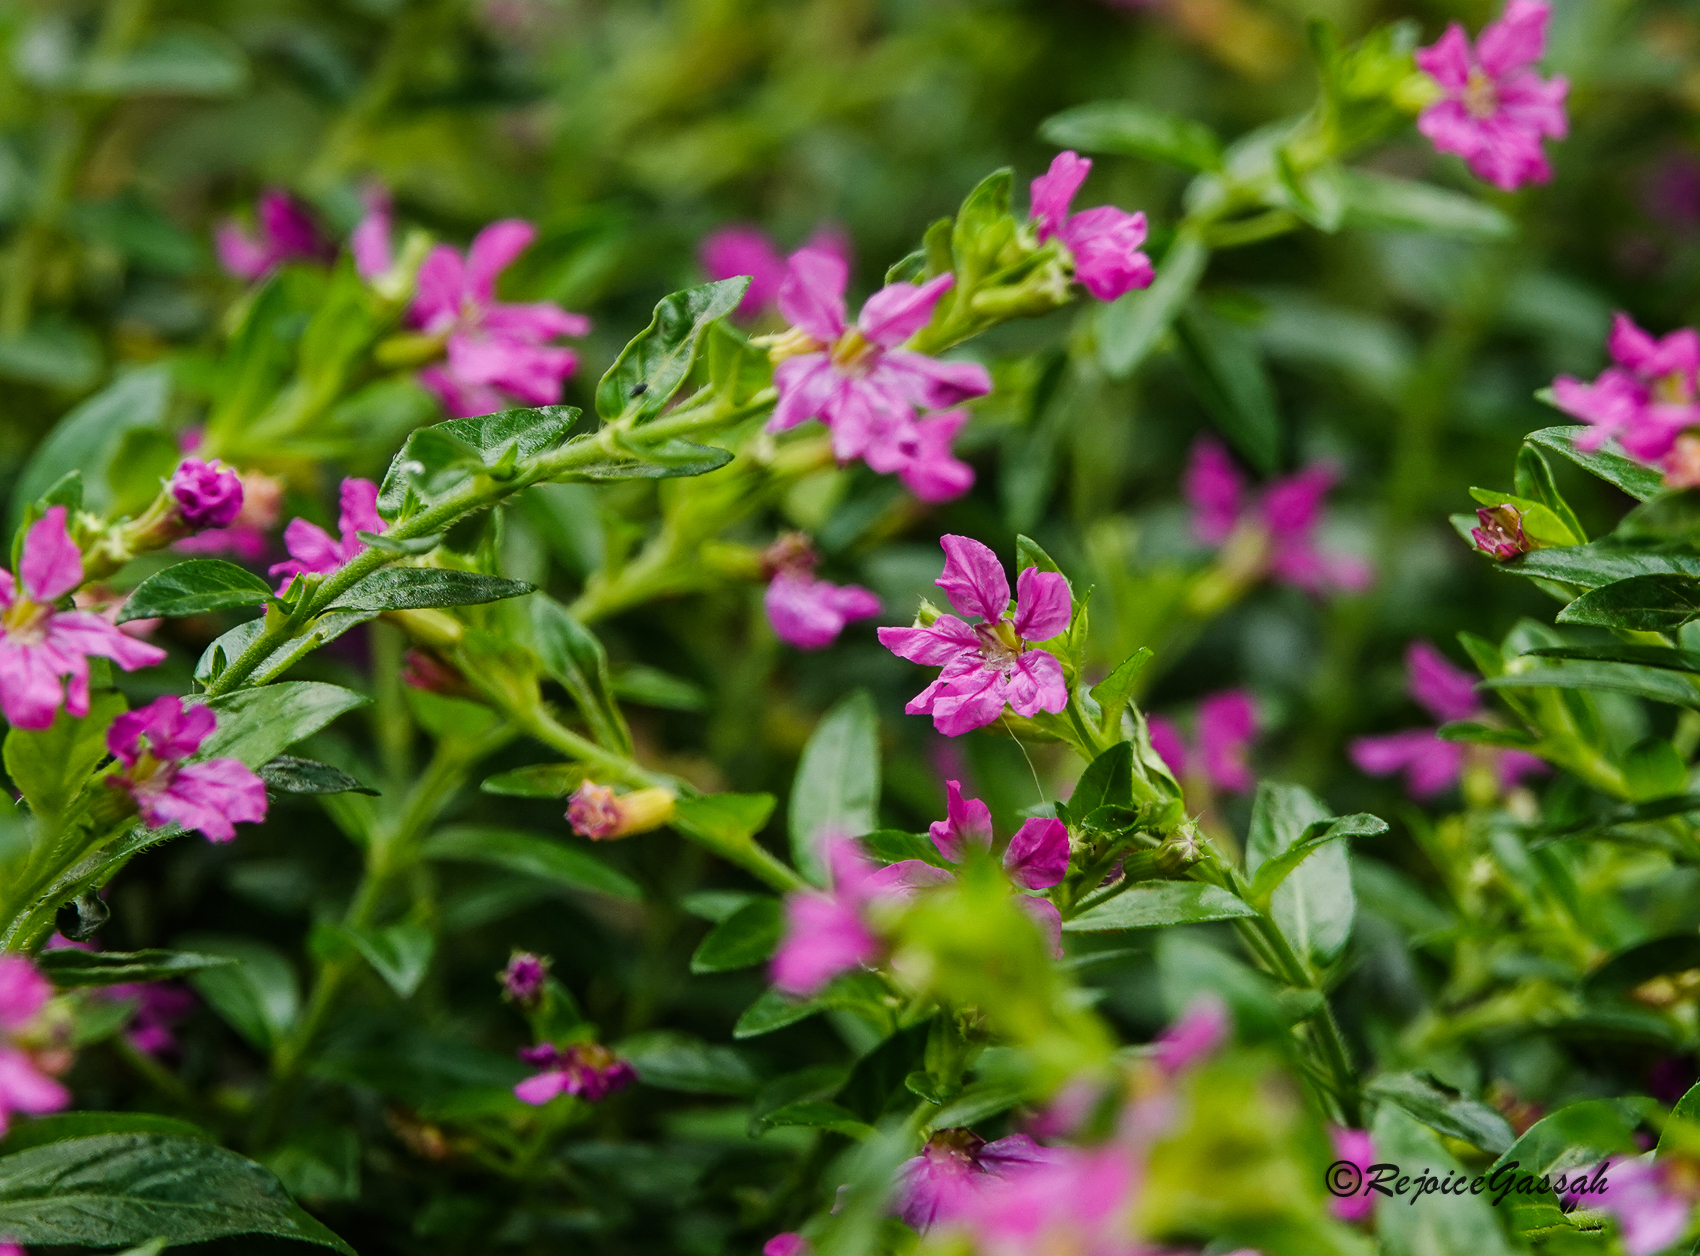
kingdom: Plantae
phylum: Tracheophyta
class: Magnoliopsida
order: Myrtales
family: Lythraceae
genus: Cuphea
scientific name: Cuphea hyssopifolia
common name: False heather
